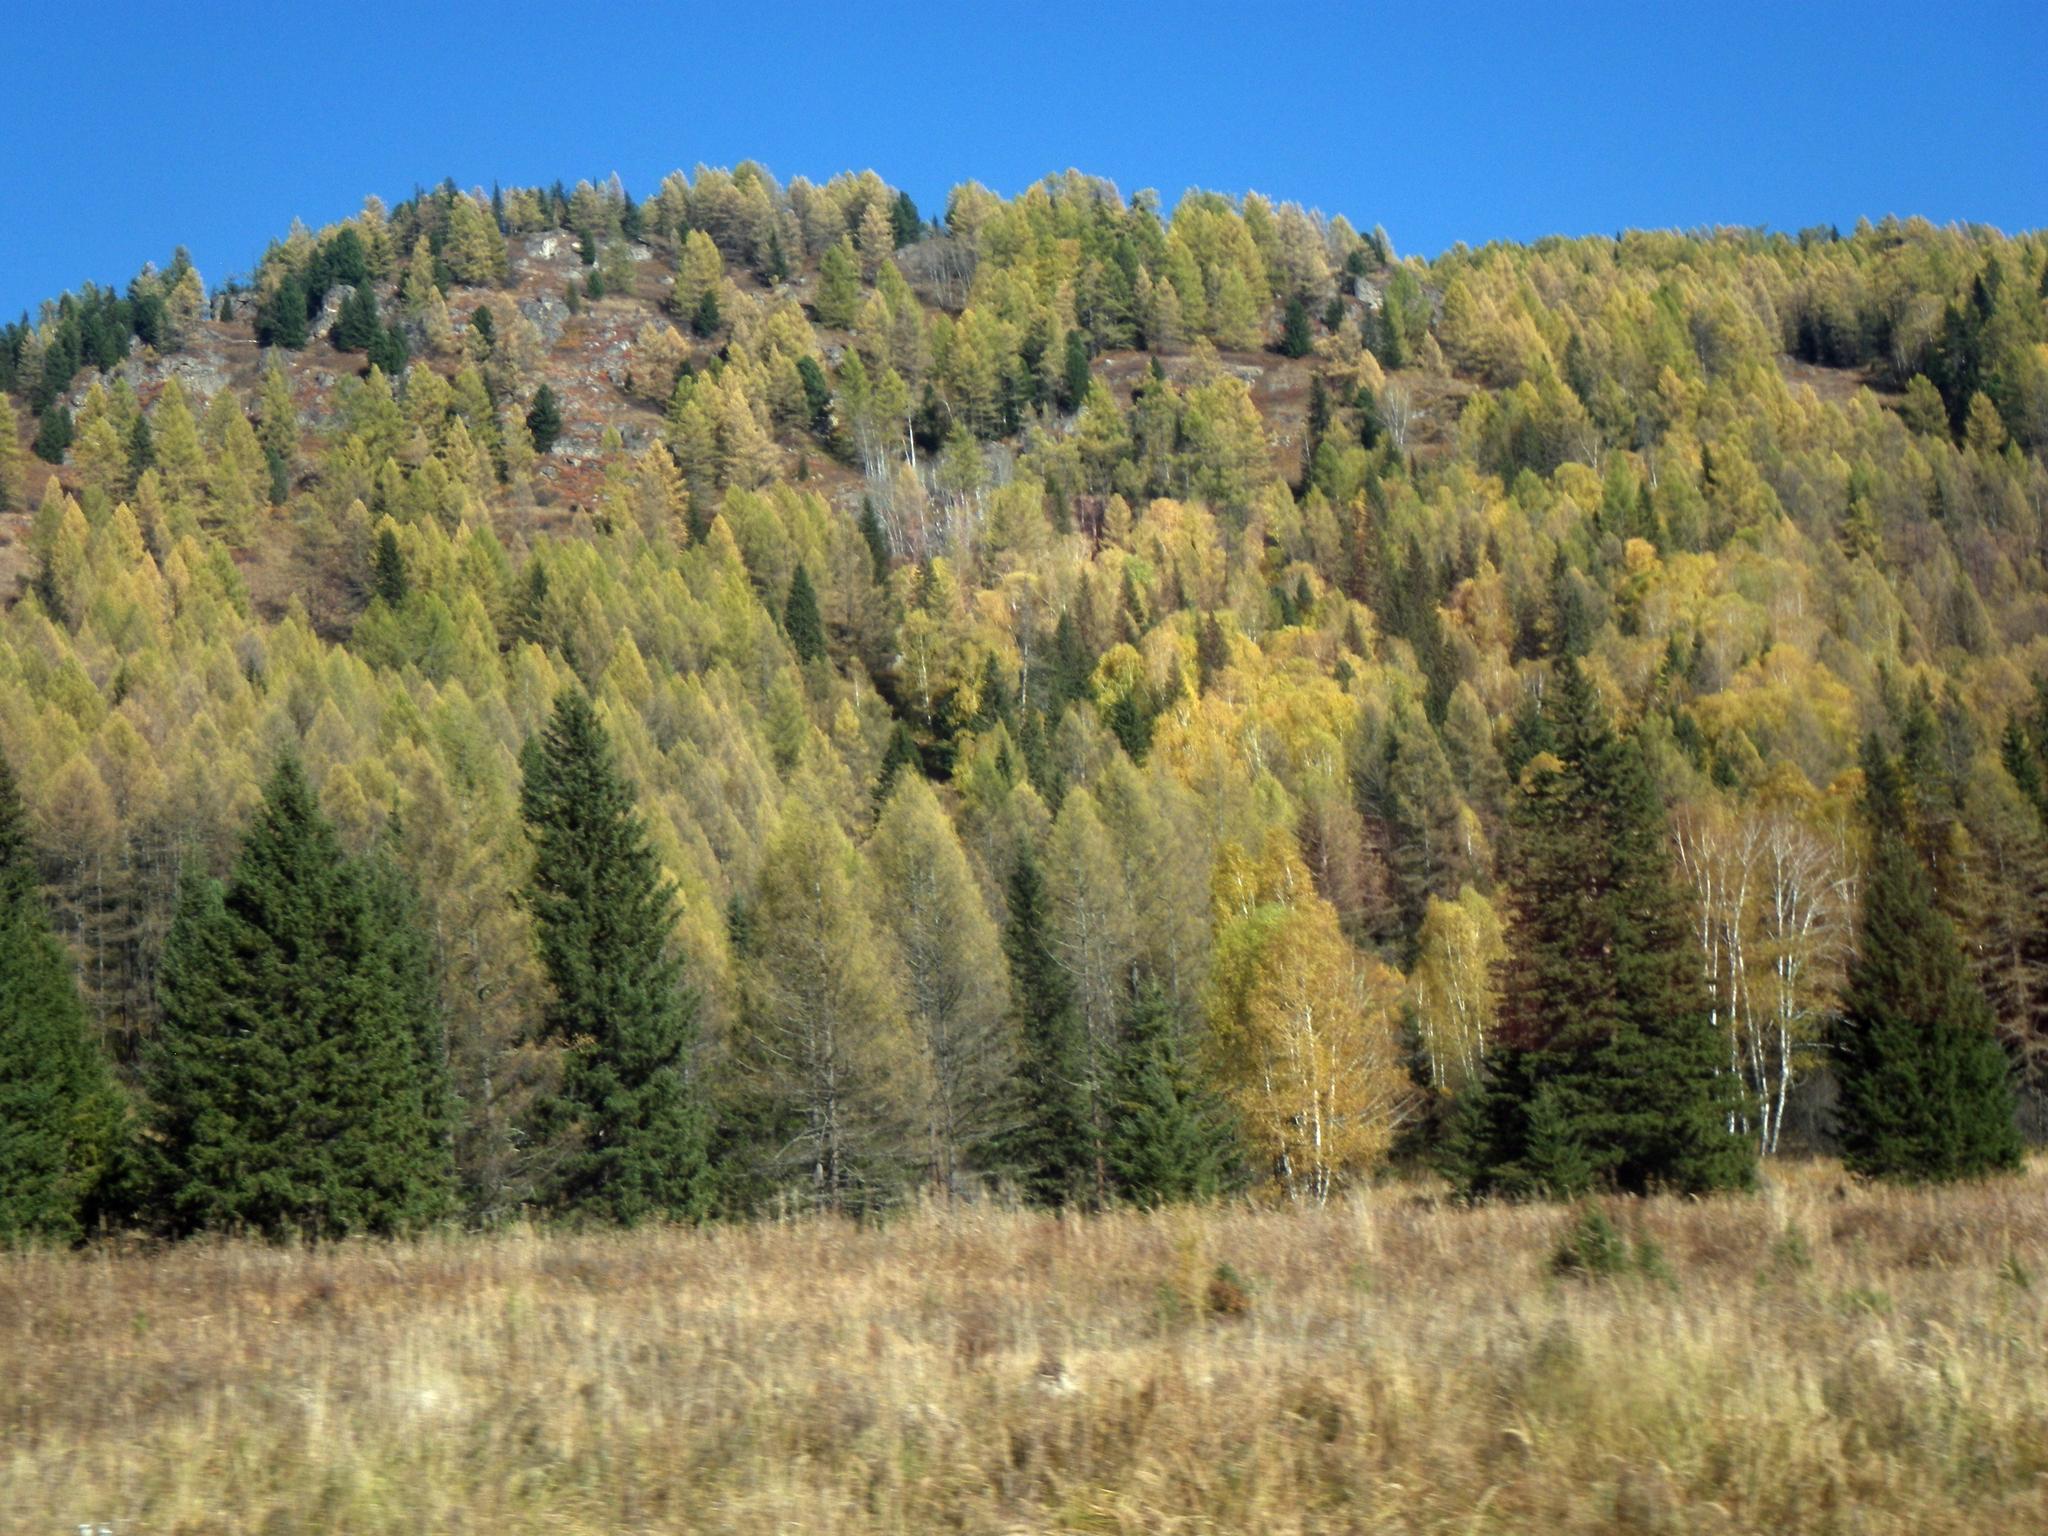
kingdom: Plantae
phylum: Tracheophyta
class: Pinopsida
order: Pinales
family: Pinaceae
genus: Picea
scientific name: Picea obovata
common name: Siberian spruce
